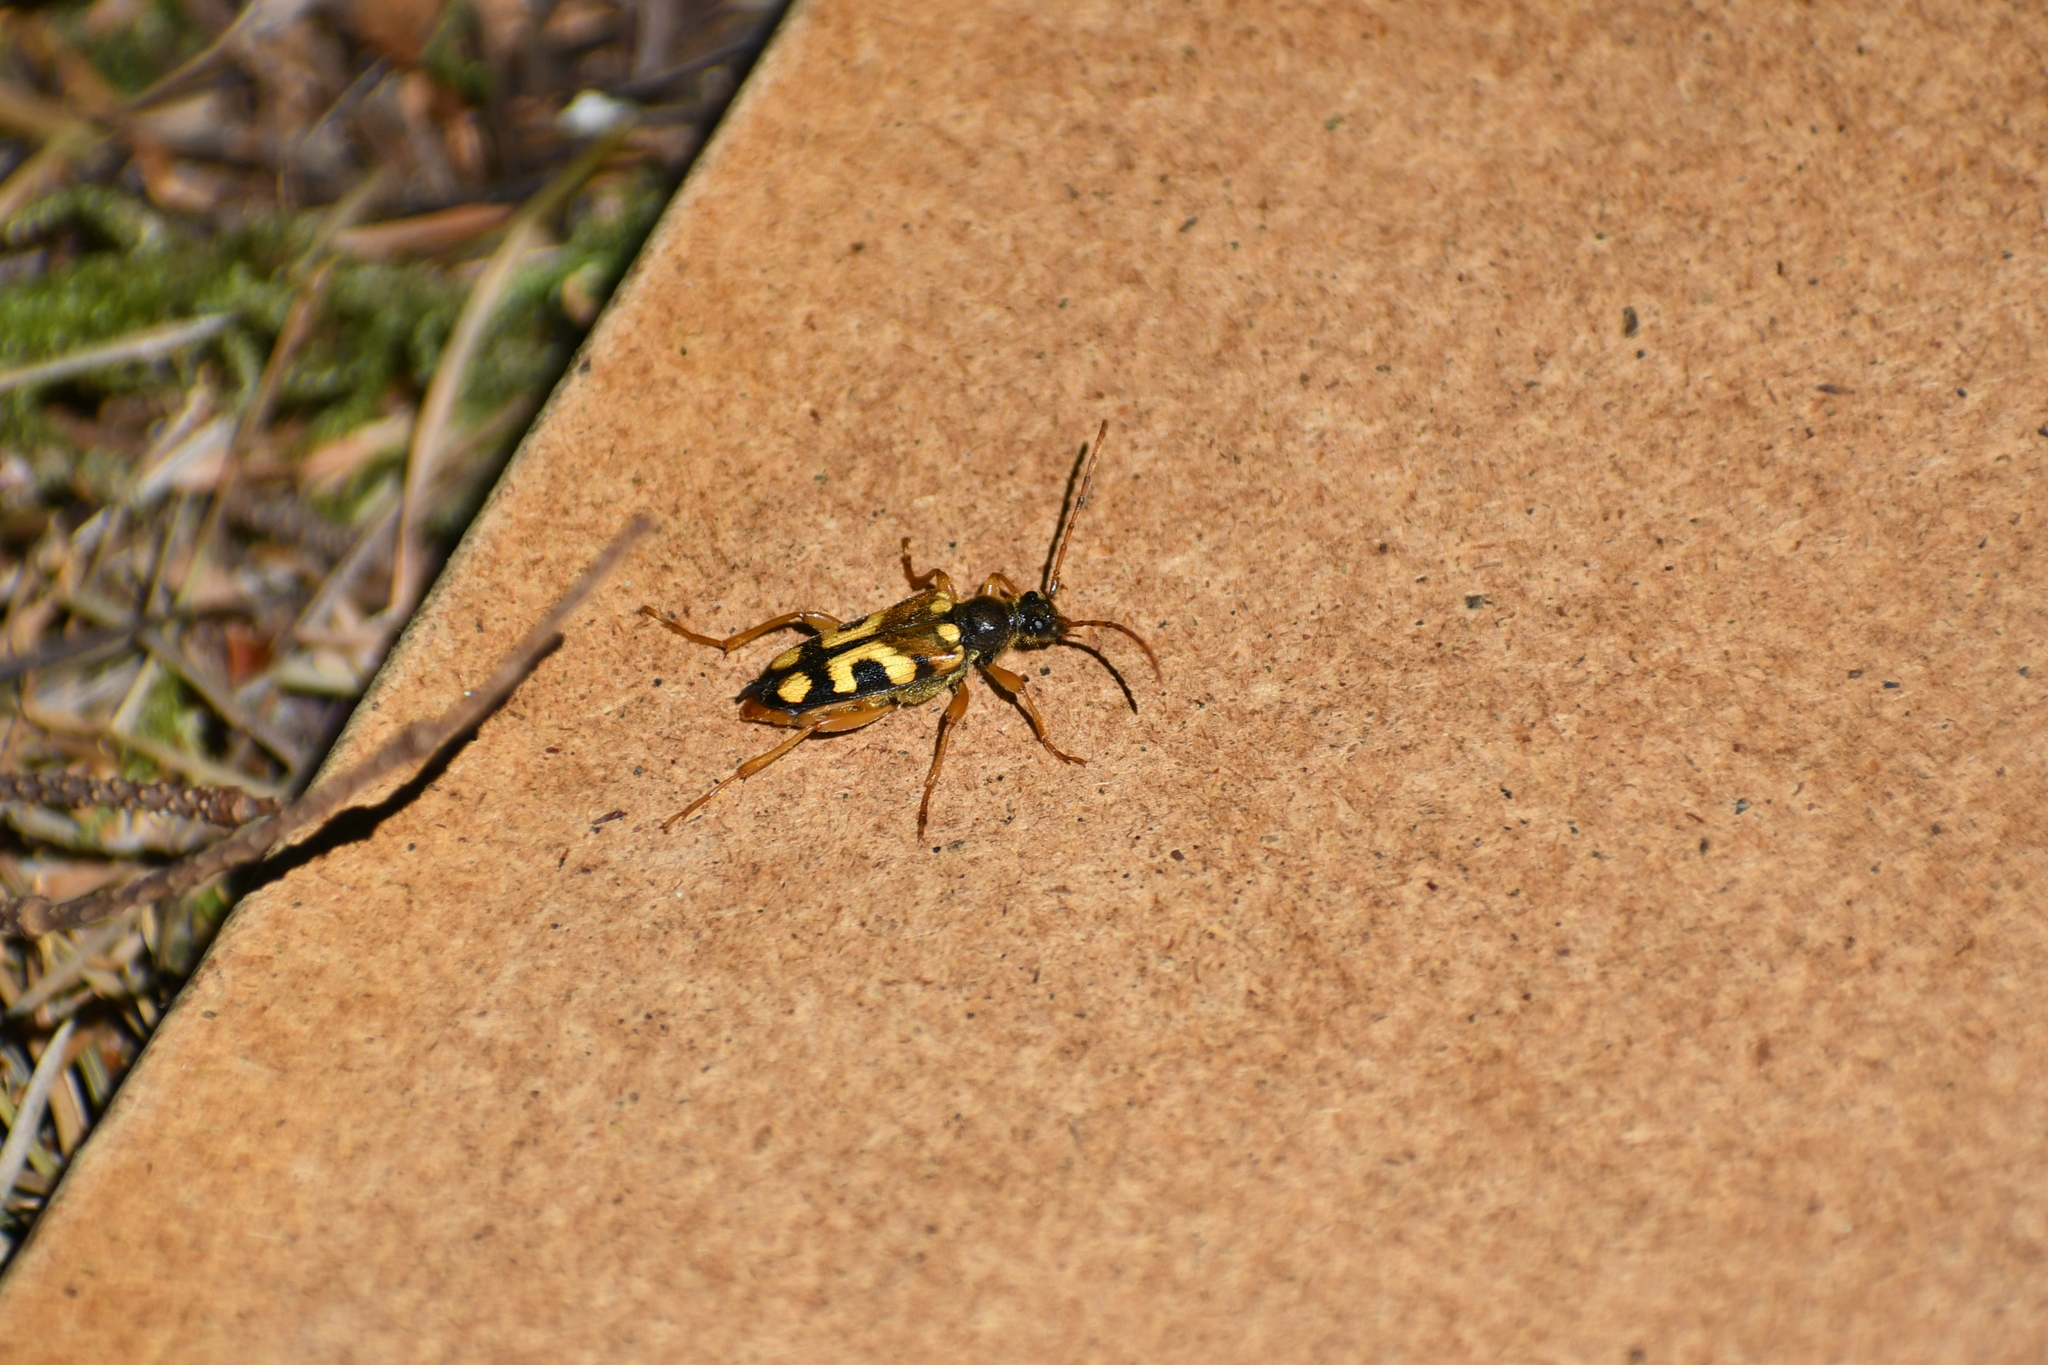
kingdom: Animalia
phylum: Arthropoda
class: Insecta
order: Coleoptera
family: Cerambycidae
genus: Xestoleptura
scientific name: Xestoleptura crassipes
